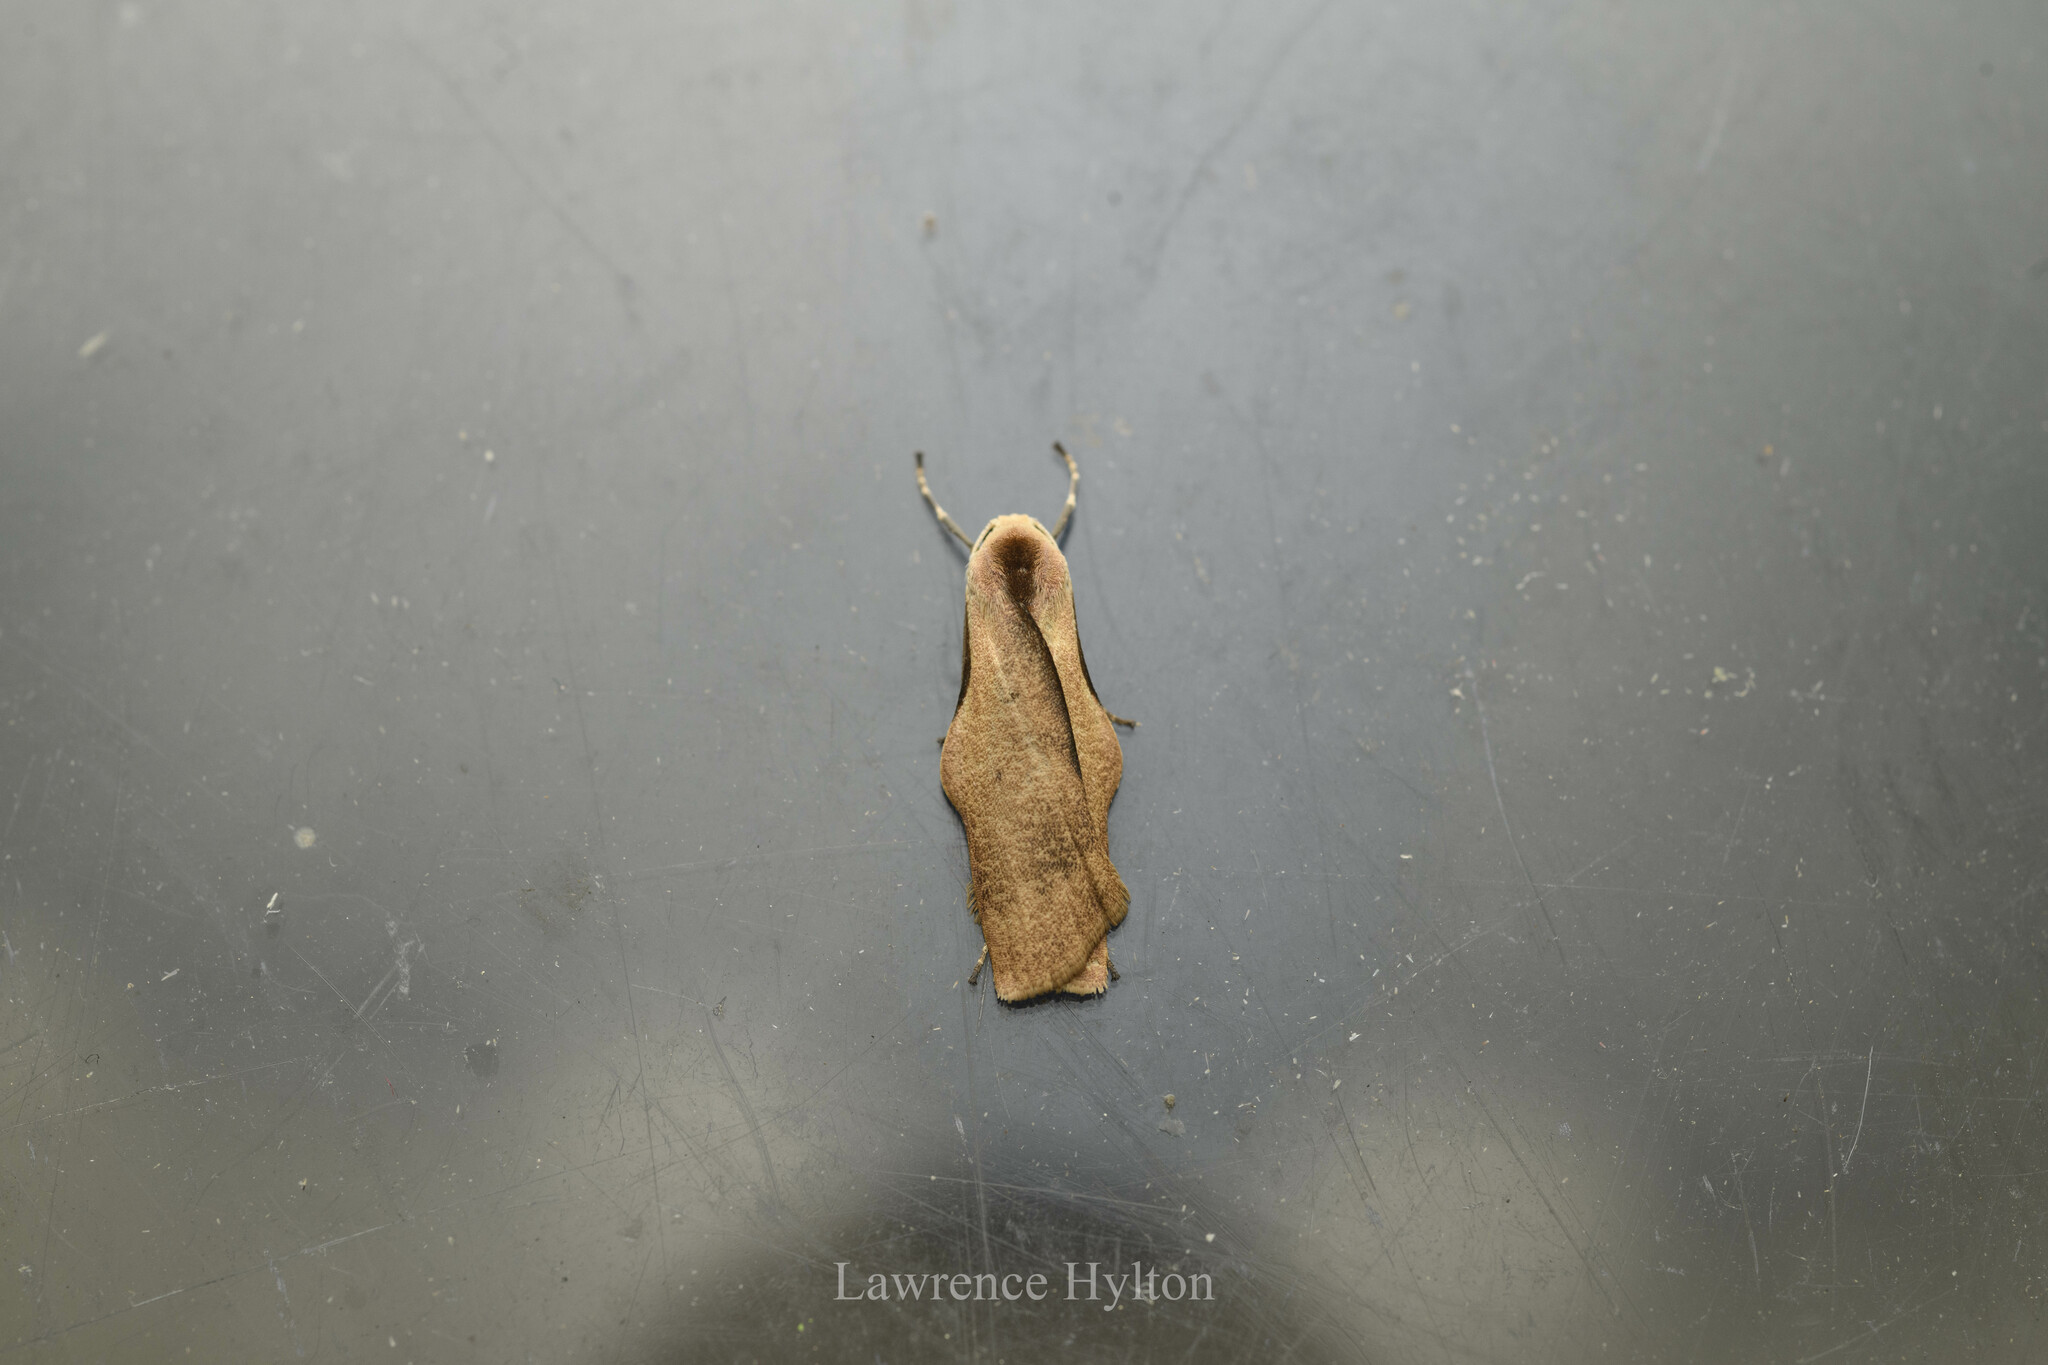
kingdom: Animalia
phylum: Arthropoda
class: Insecta
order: Lepidoptera
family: Erebidae
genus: Teulisna
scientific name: Teulisna tumida
